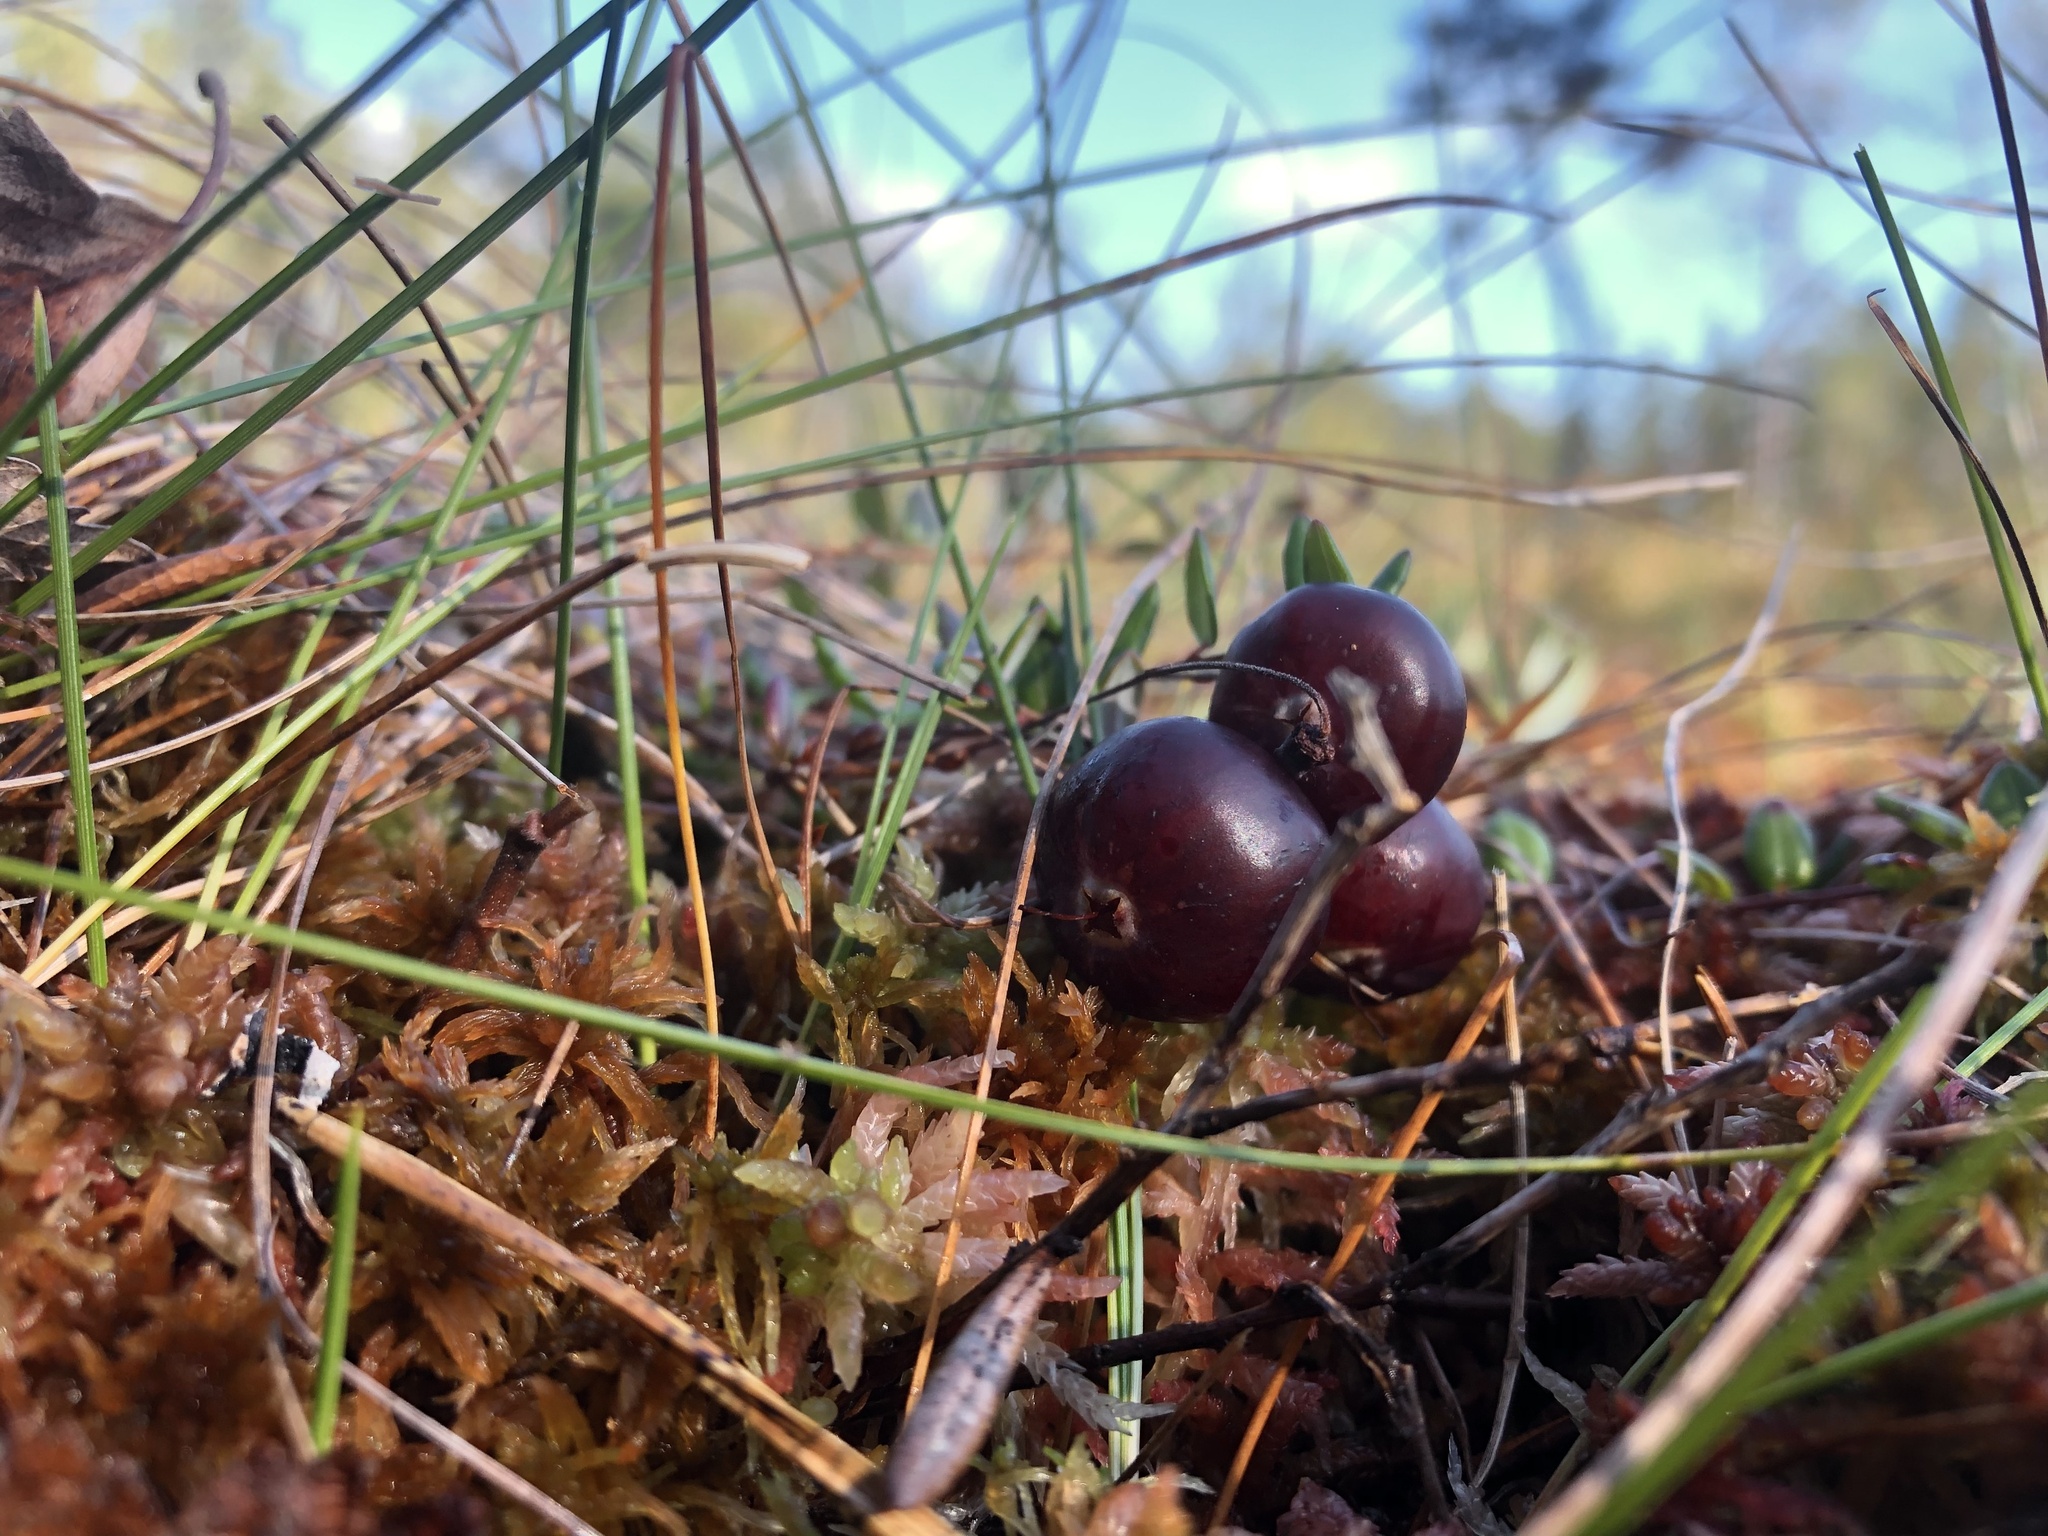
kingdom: Plantae
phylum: Tracheophyta
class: Magnoliopsida
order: Ericales
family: Ericaceae
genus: Vaccinium
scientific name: Vaccinium oxycoccos
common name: Cranberry
